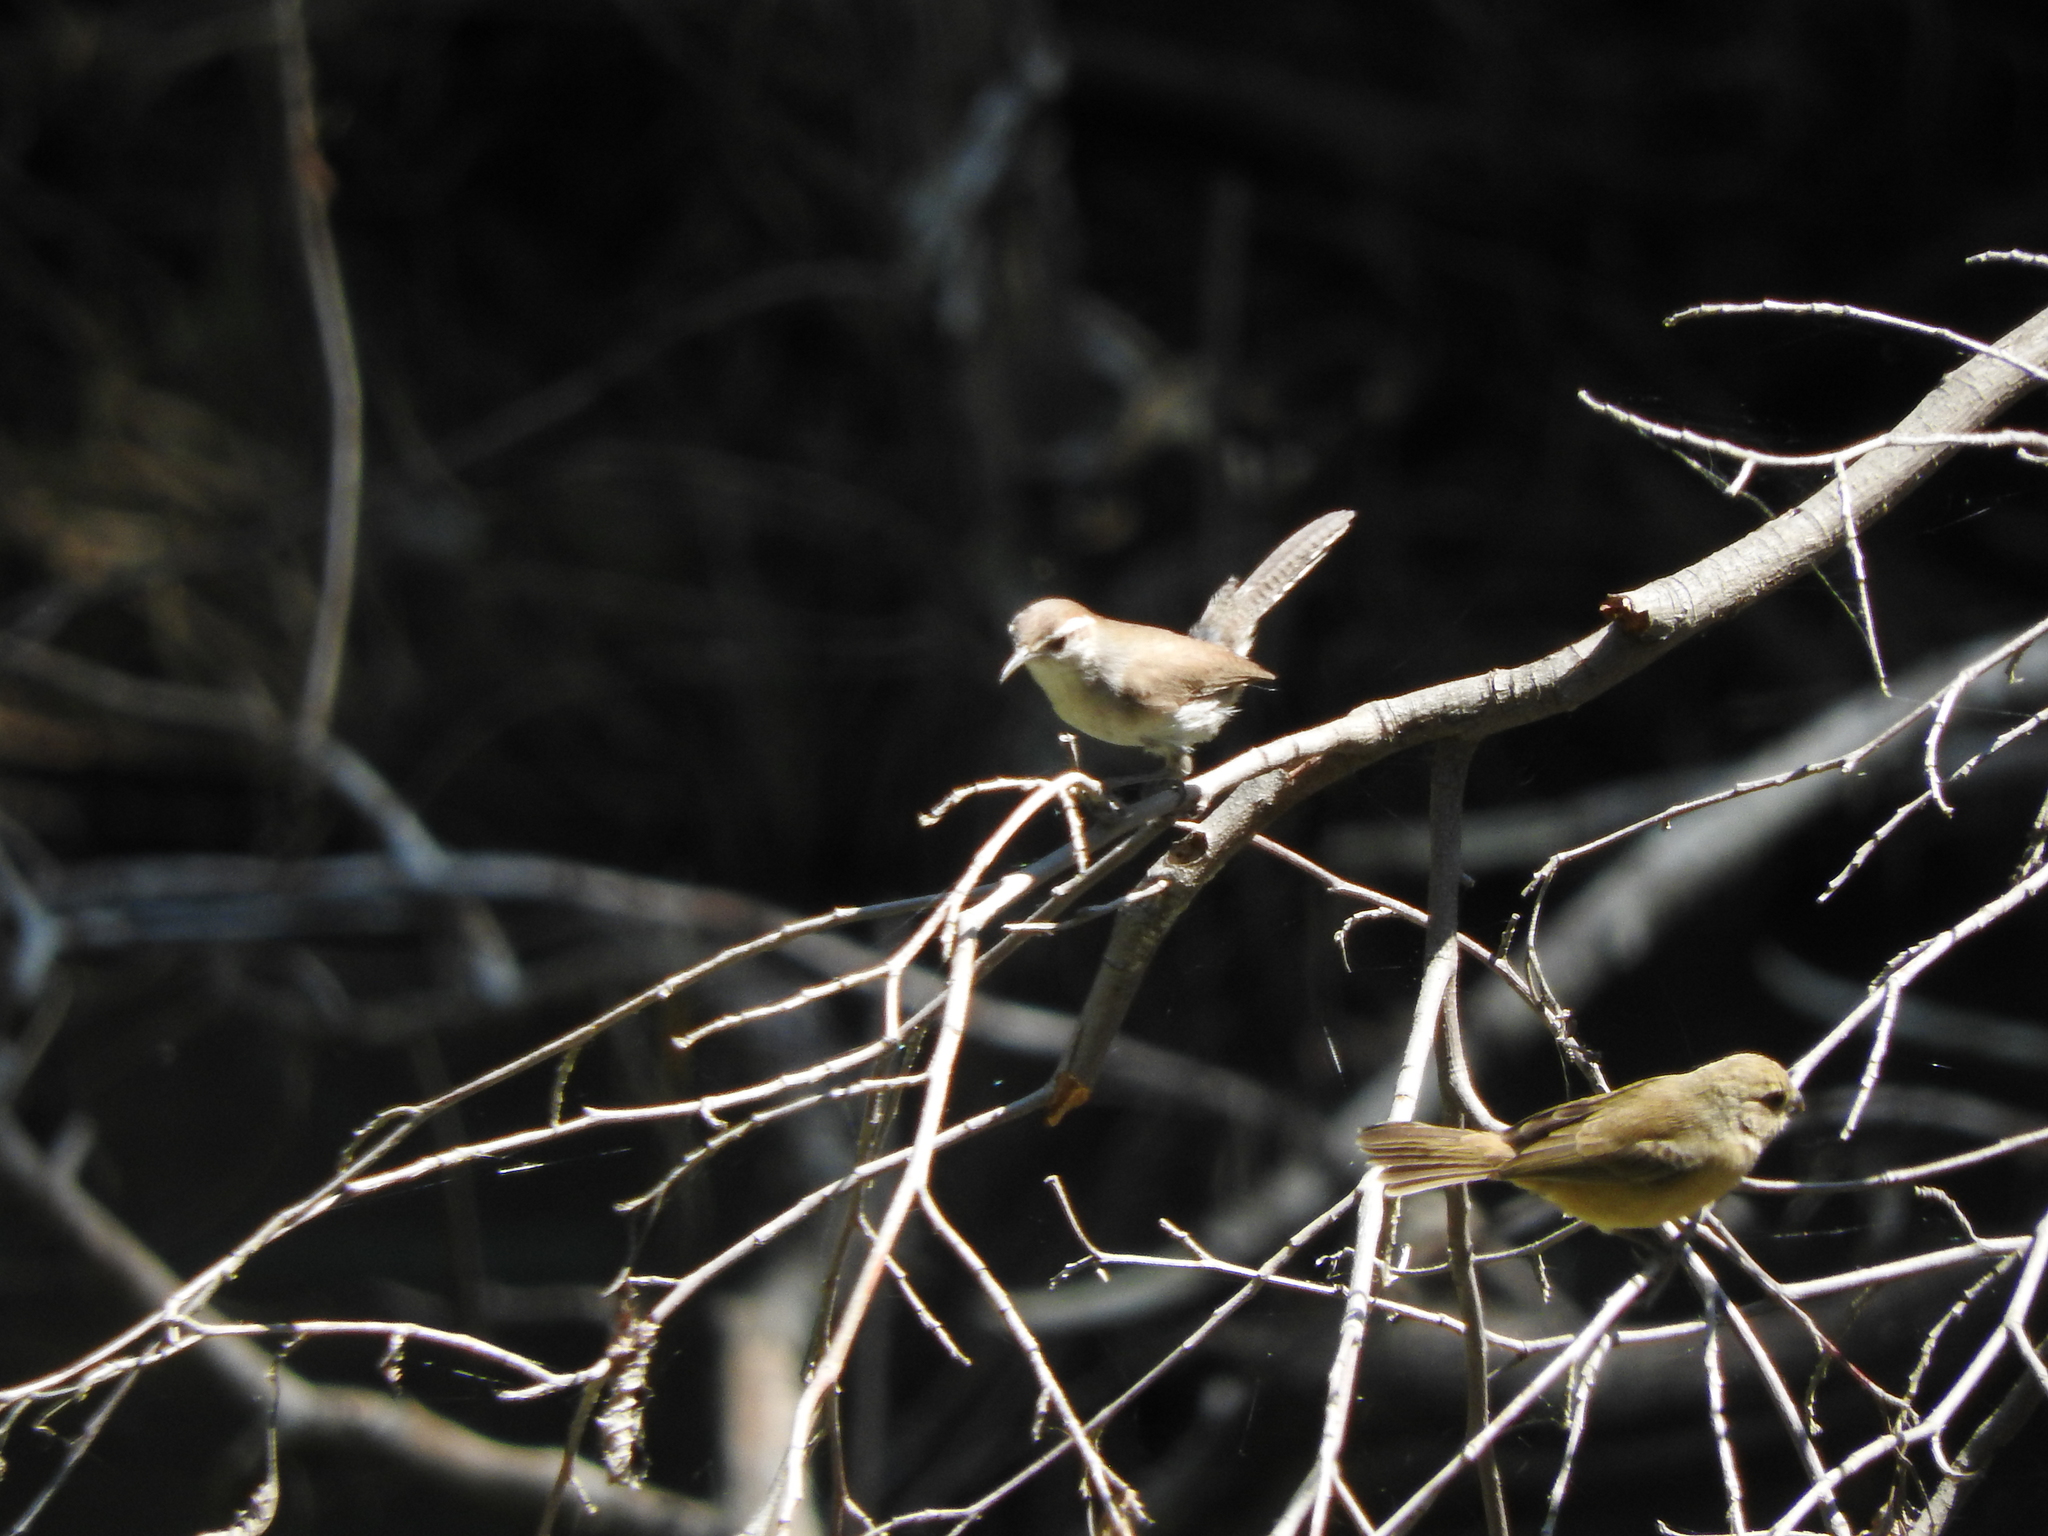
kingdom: Animalia
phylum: Chordata
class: Aves
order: Passeriformes
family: Thraupidae
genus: Sporophila
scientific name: Sporophila torqueola
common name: White-collared seedeater
